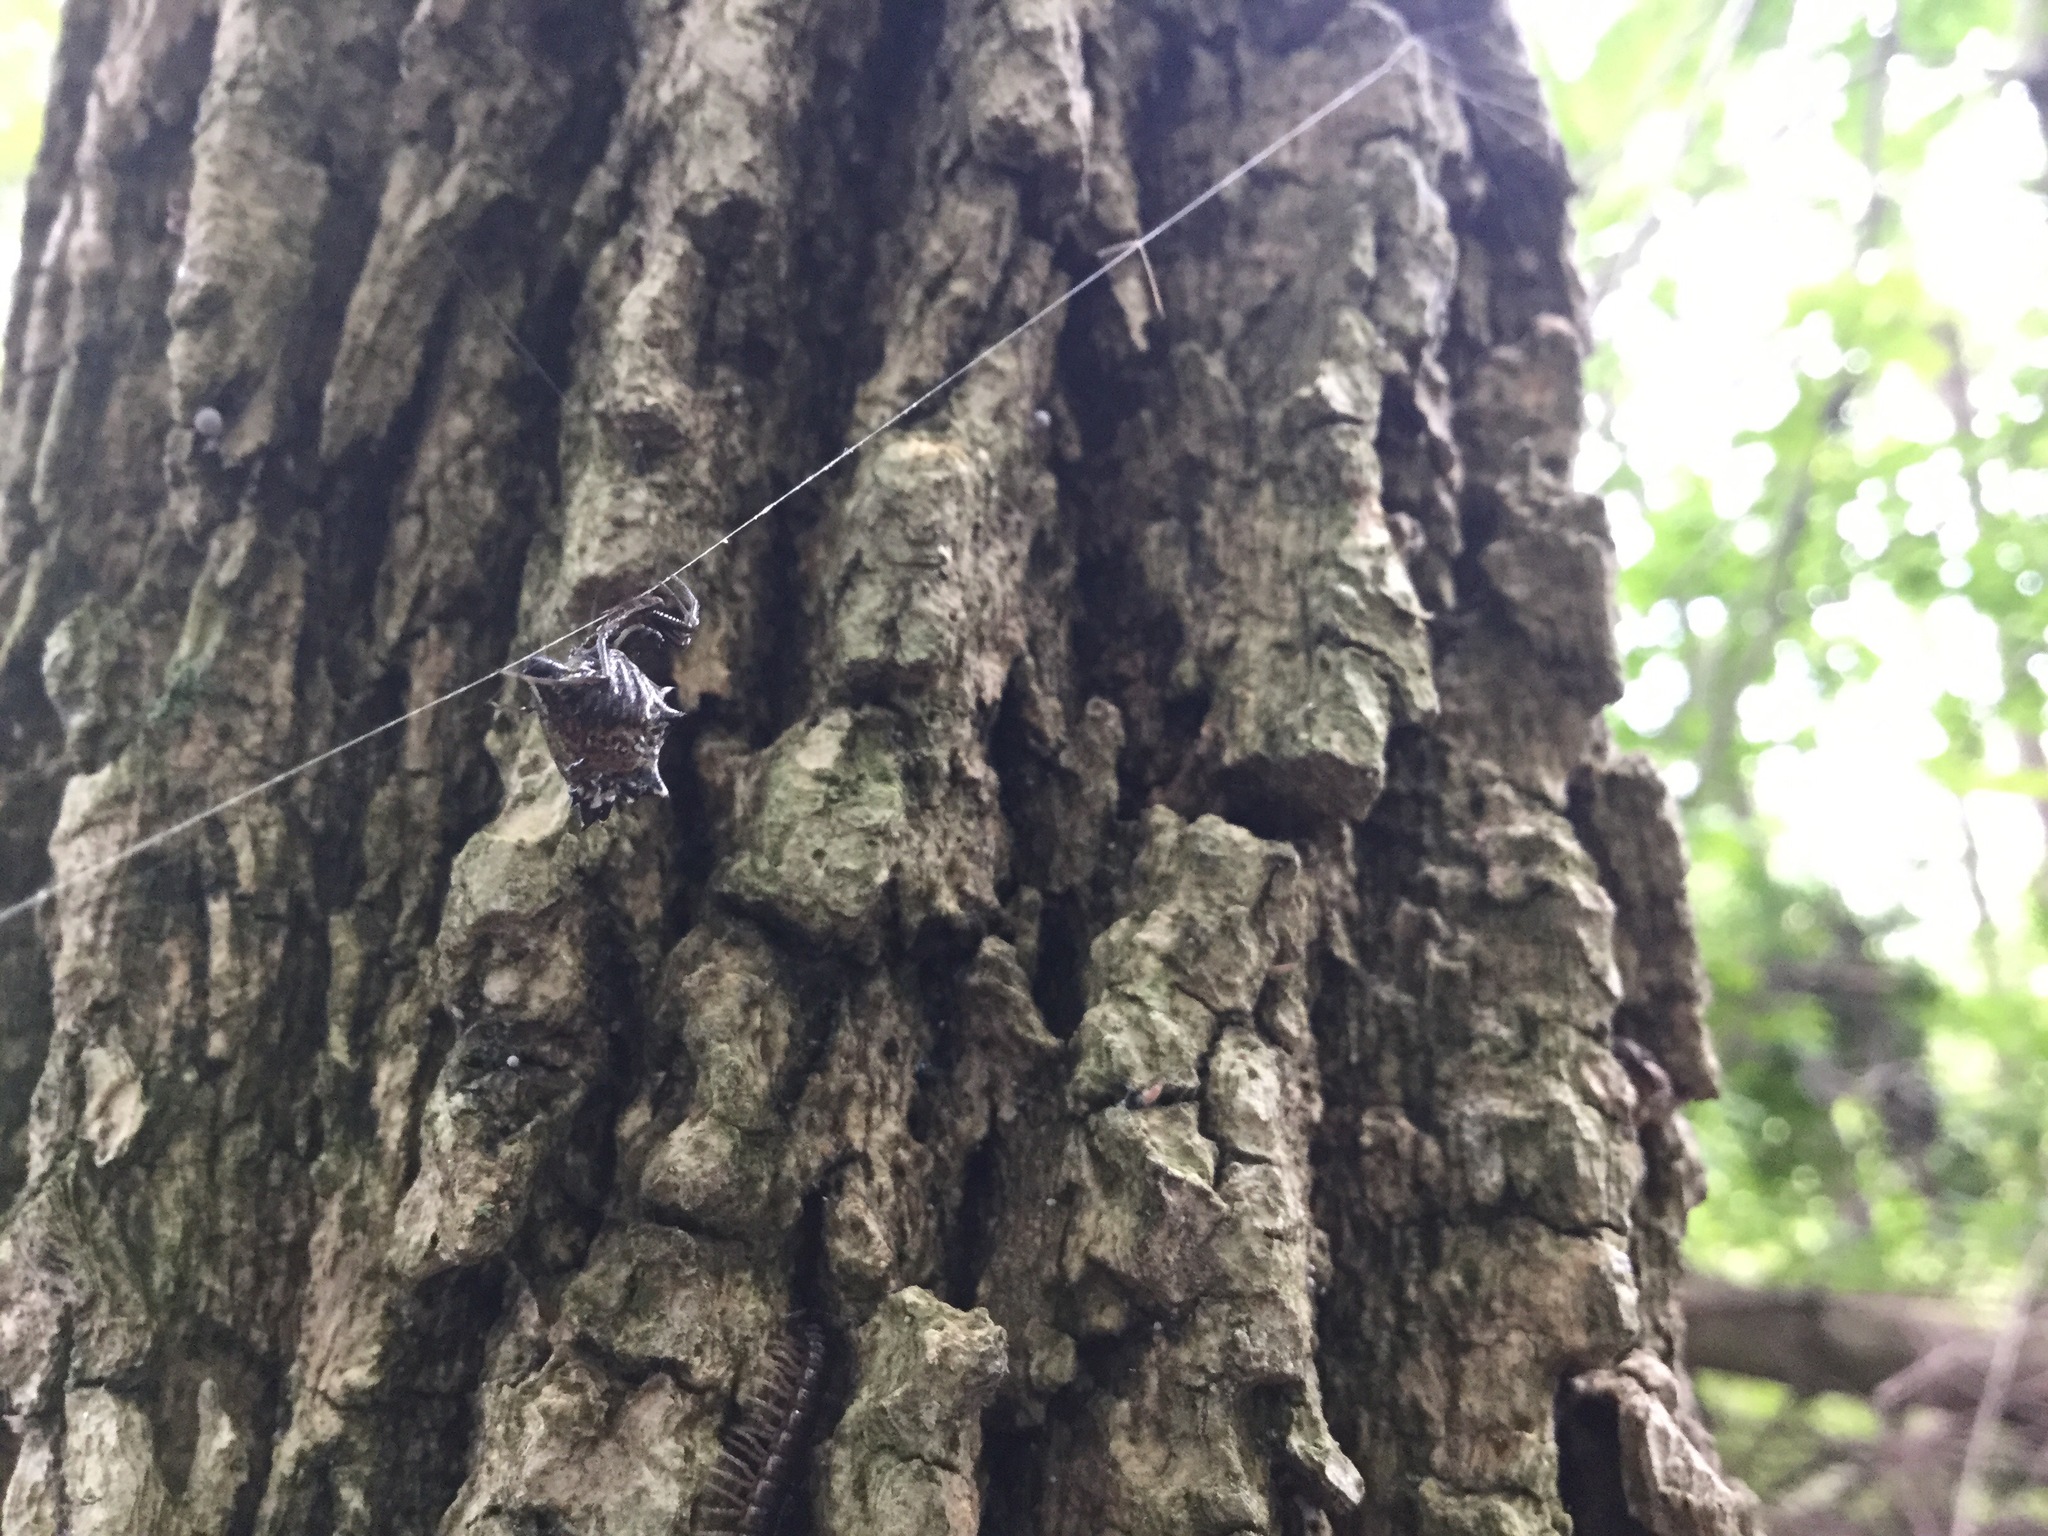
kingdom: Animalia
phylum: Arthropoda
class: Arachnida
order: Araneae
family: Araneidae
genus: Micrathena
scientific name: Micrathena gracilis
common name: Orb weavers
